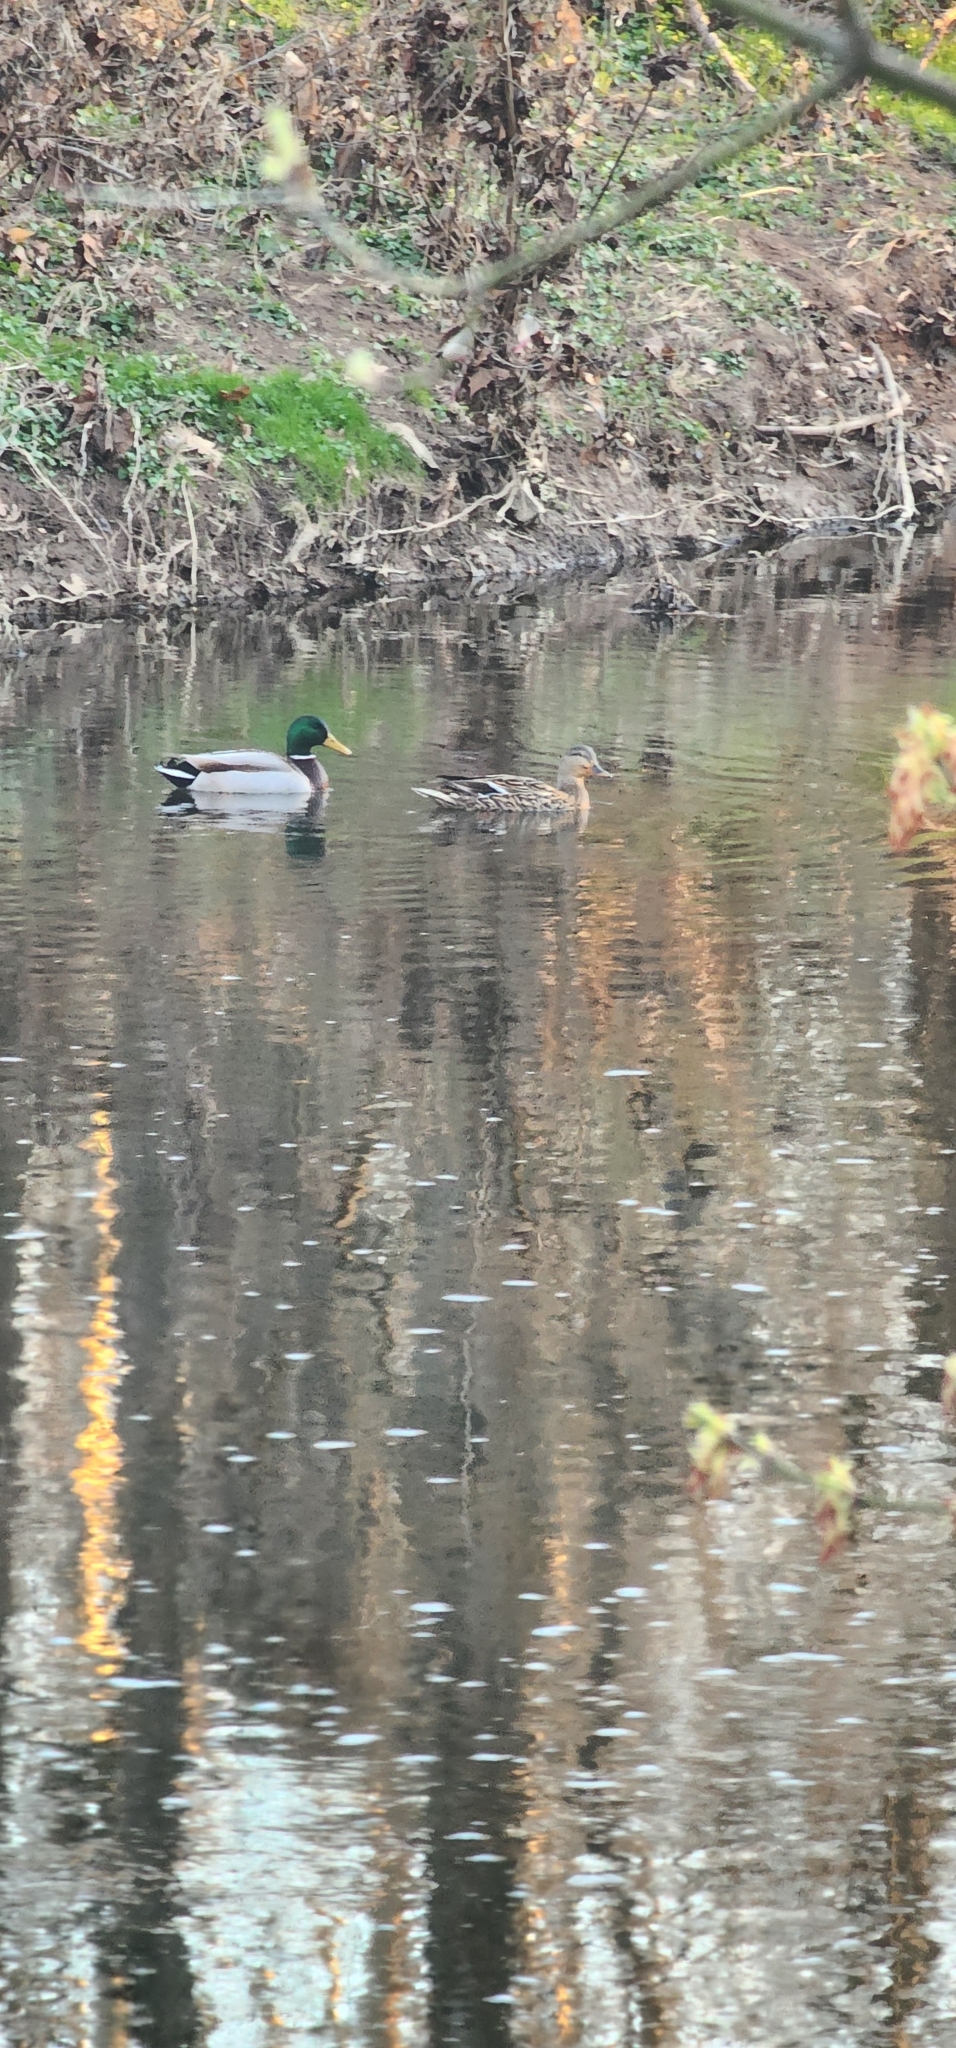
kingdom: Animalia
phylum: Chordata
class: Aves
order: Anseriformes
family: Anatidae
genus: Anas
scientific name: Anas platyrhynchos
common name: Mallard
